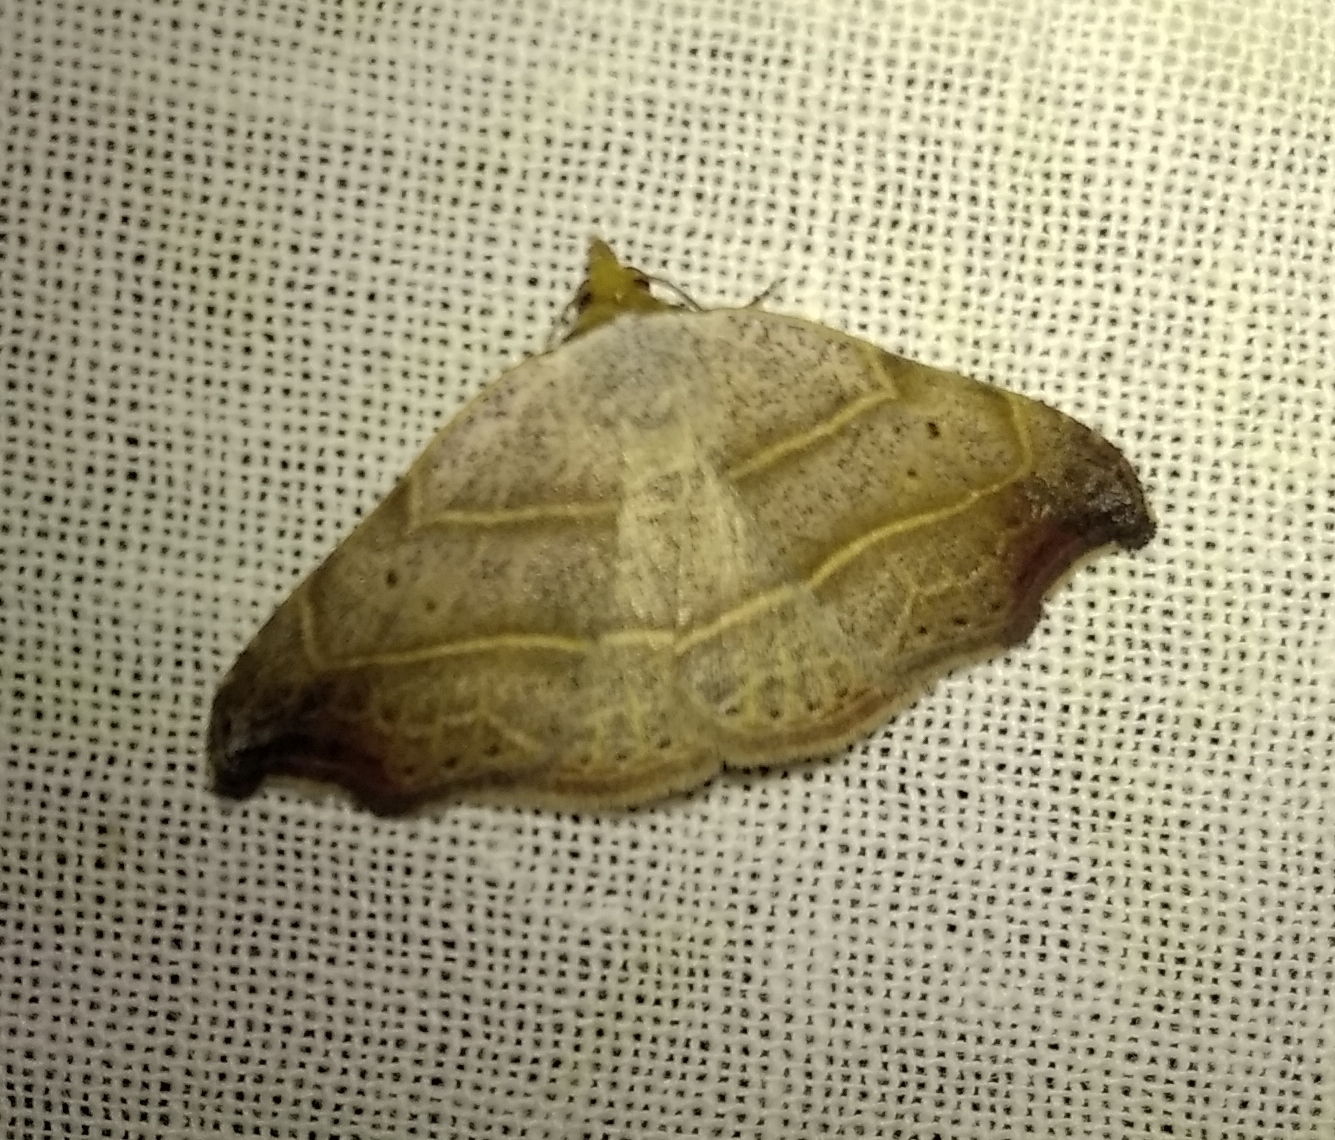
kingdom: Animalia
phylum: Arthropoda
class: Insecta
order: Lepidoptera
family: Erebidae
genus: Laspeyria
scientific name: Laspeyria flexula
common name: Beautiful hook-tip
